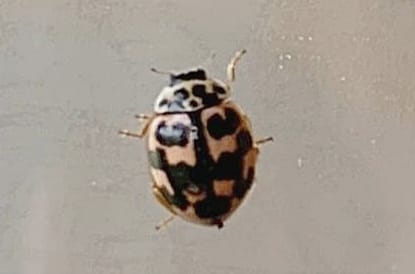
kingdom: Animalia
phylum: Arthropoda
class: Insecta
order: Coleoptera
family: Coccinellidae
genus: Oenopia
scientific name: Oenopia conglobata
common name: Ladybird beetle
